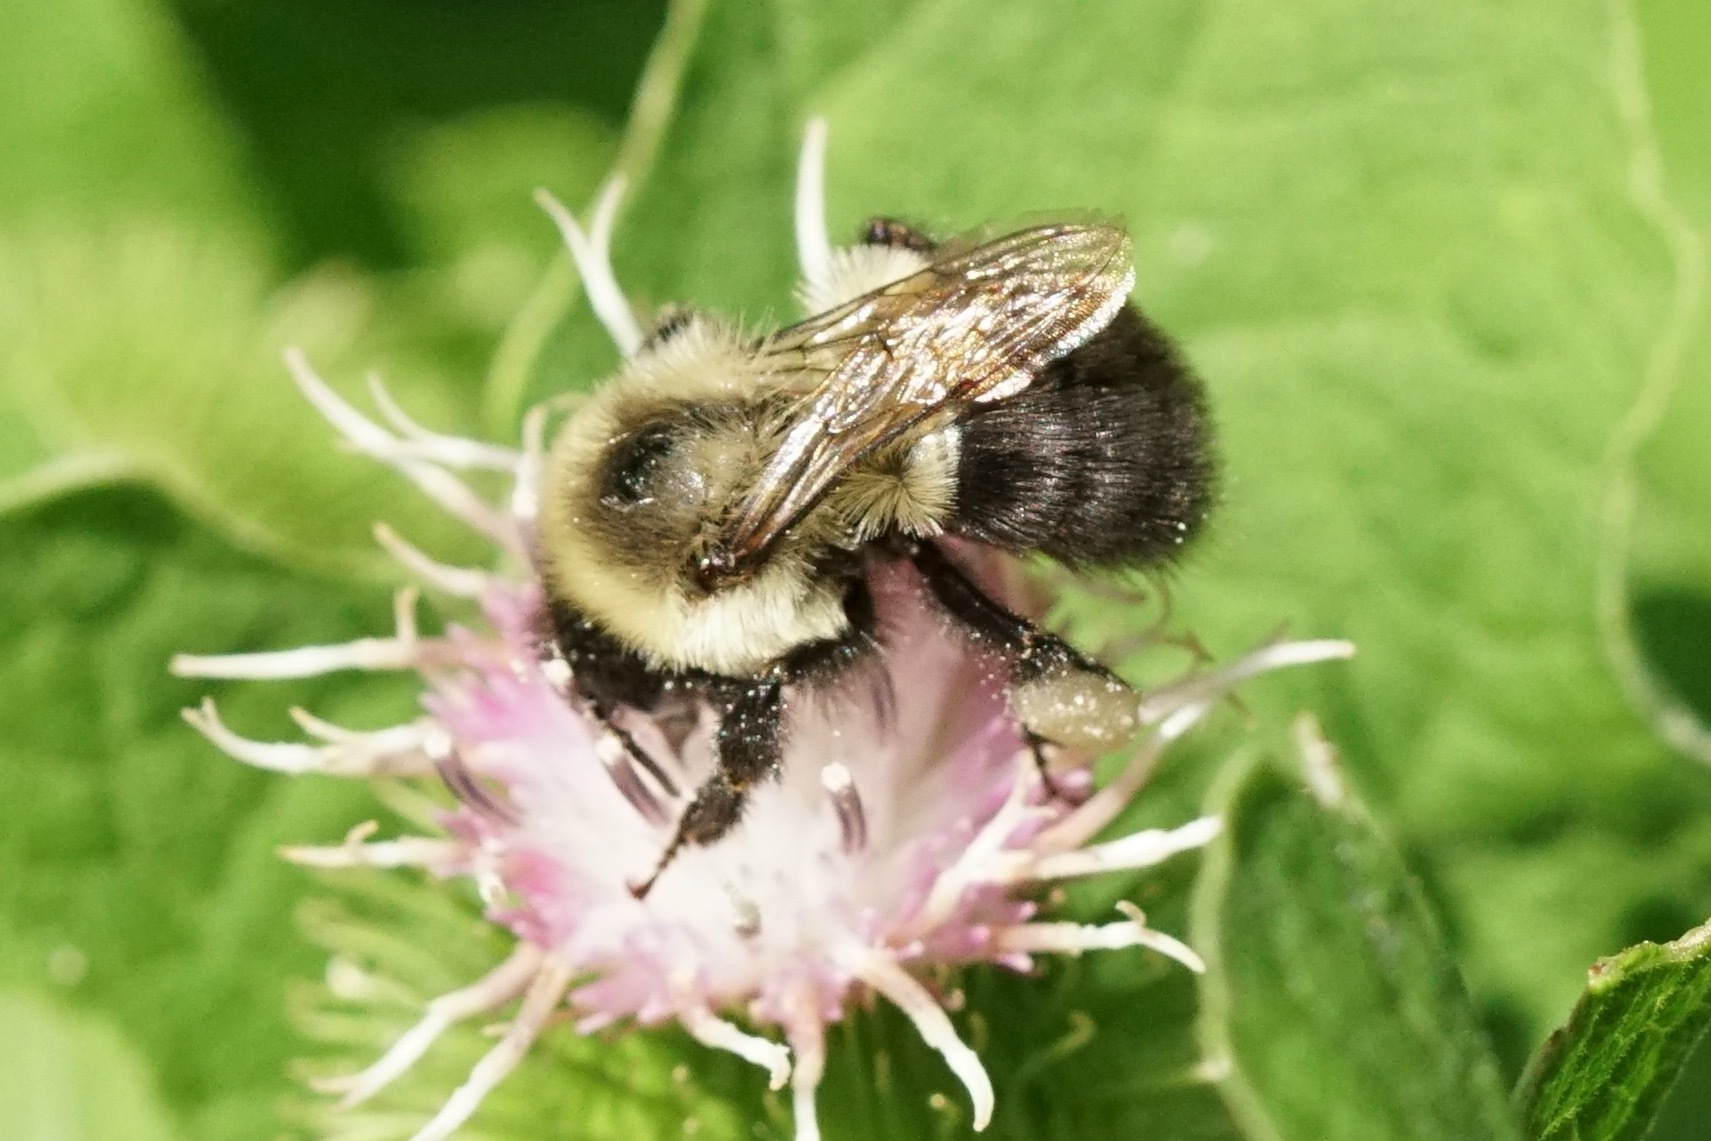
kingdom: Animalia
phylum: Arthropoda
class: Insecta
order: Hymenoptera
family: Apidae
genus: Bombus
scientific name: Bombus impatiens
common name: Common eastern bumble bee
